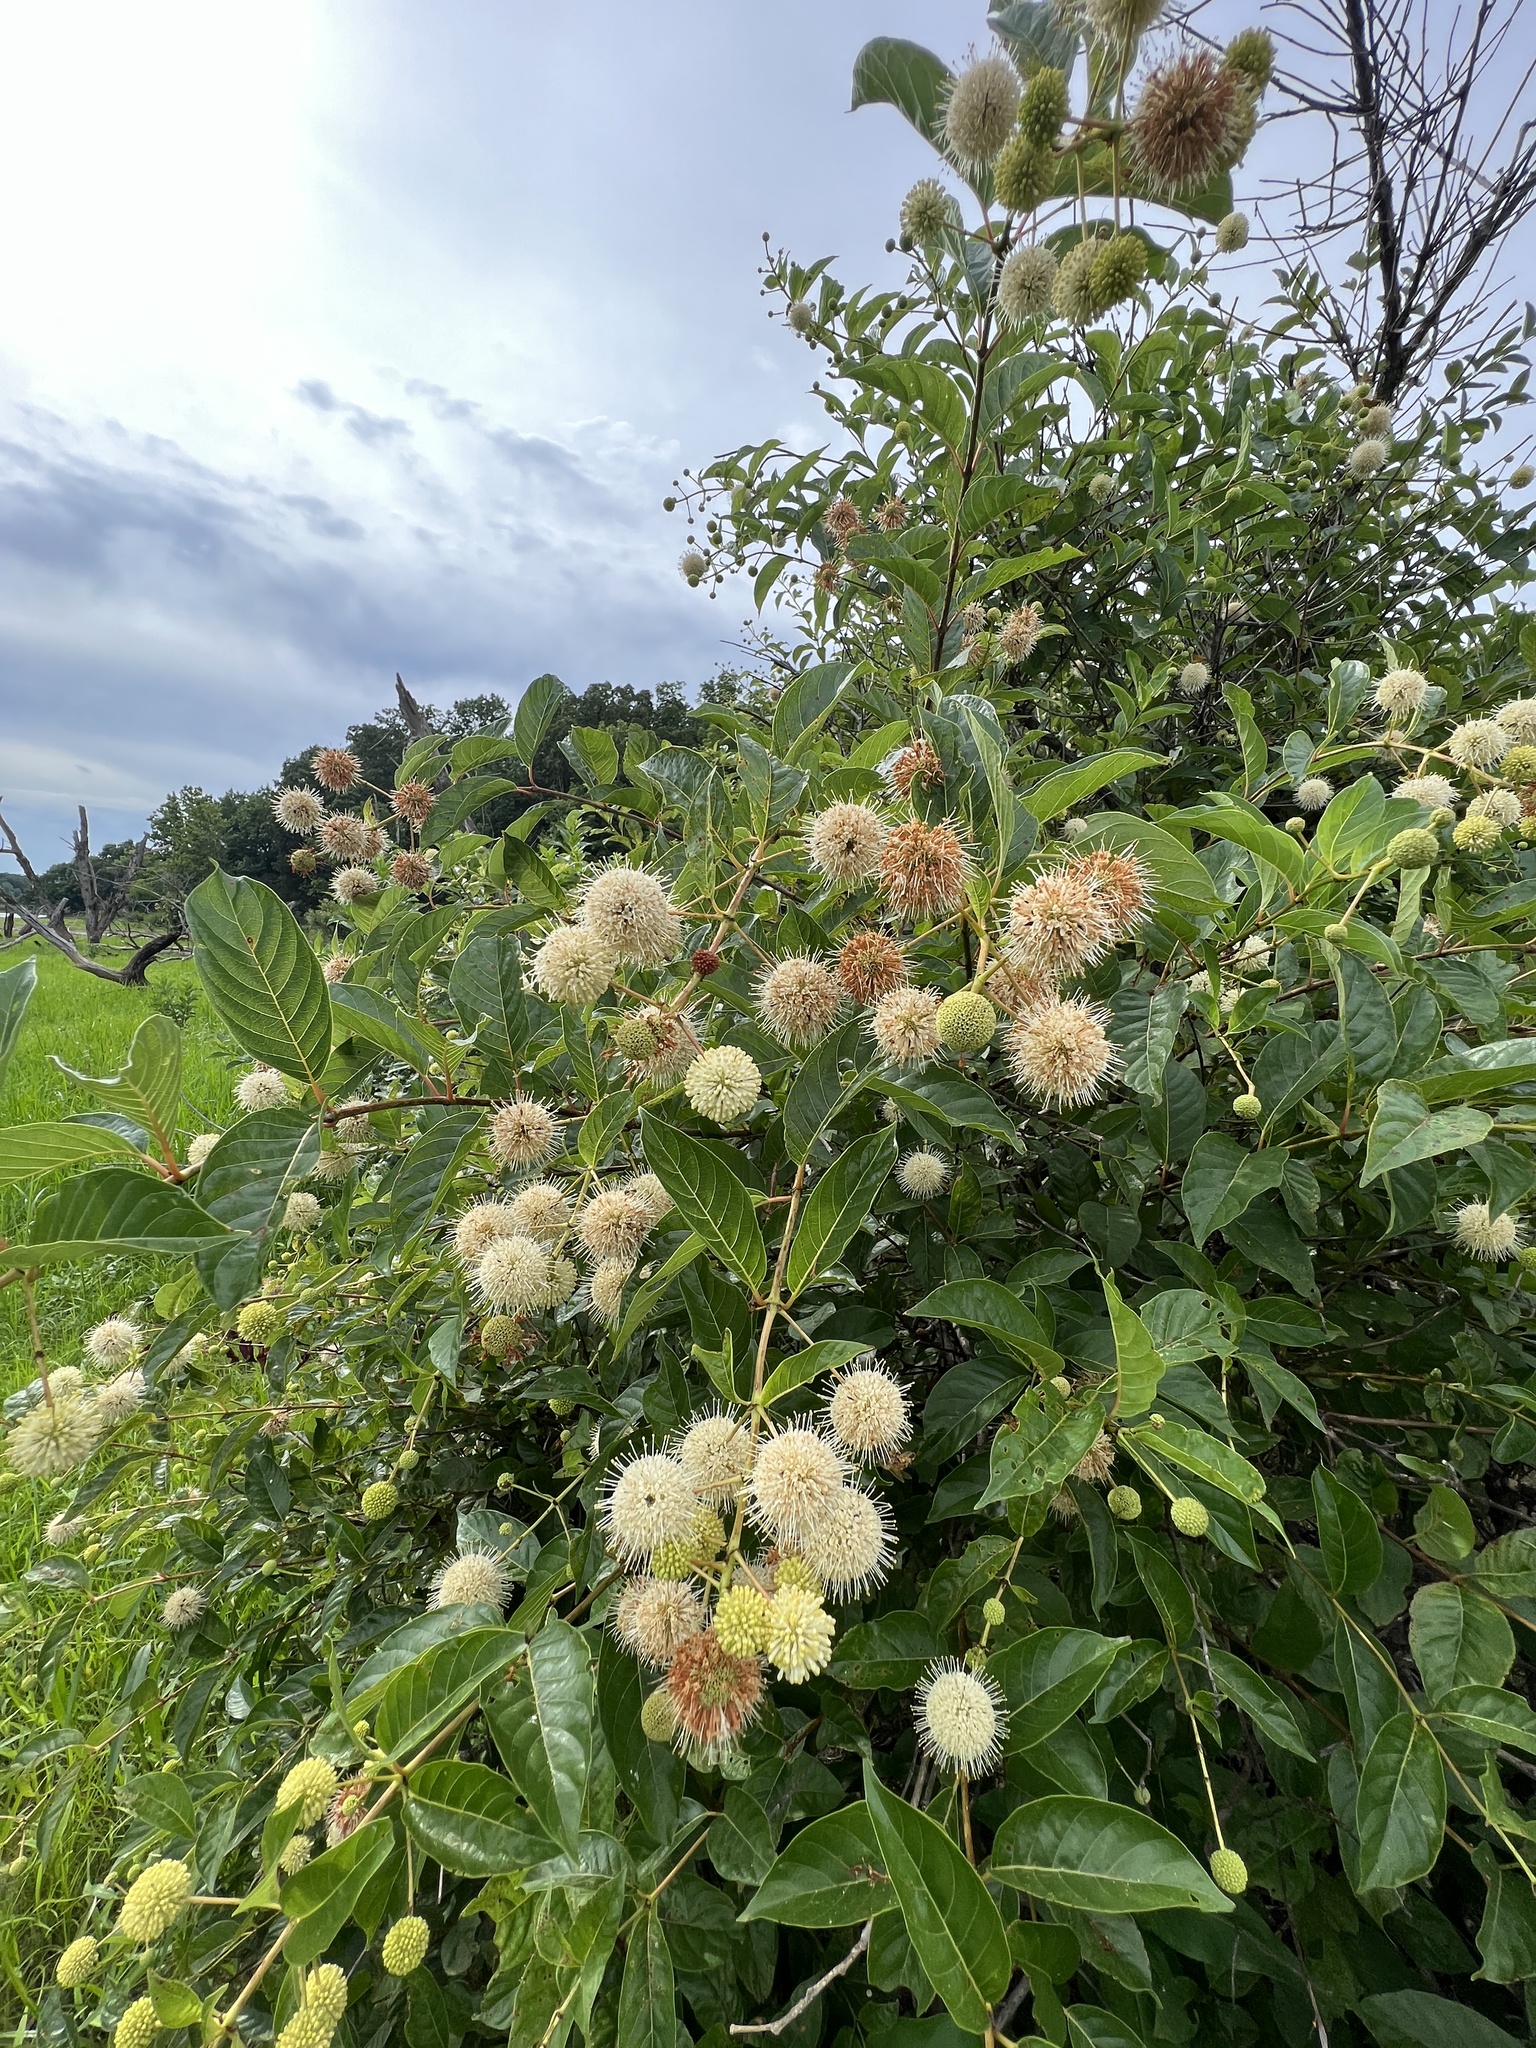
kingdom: Plantae
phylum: Tracheophyta
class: Magnoliopsida
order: Gentianales
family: Rubiaceae
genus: Cephalanthus
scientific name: Cephalanthus occidentalis
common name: Button-willow
